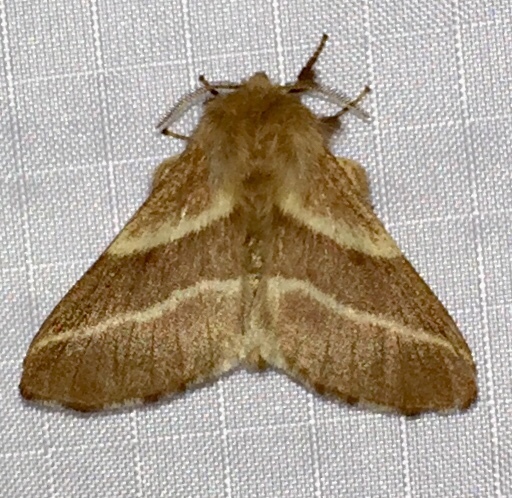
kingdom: Animalia
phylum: Arthropoda
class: Insecta
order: Lepidoptera
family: Lasiocampidae
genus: Malacosoma
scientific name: Malacosoma americana
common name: Eastern tent caterpillar moth
